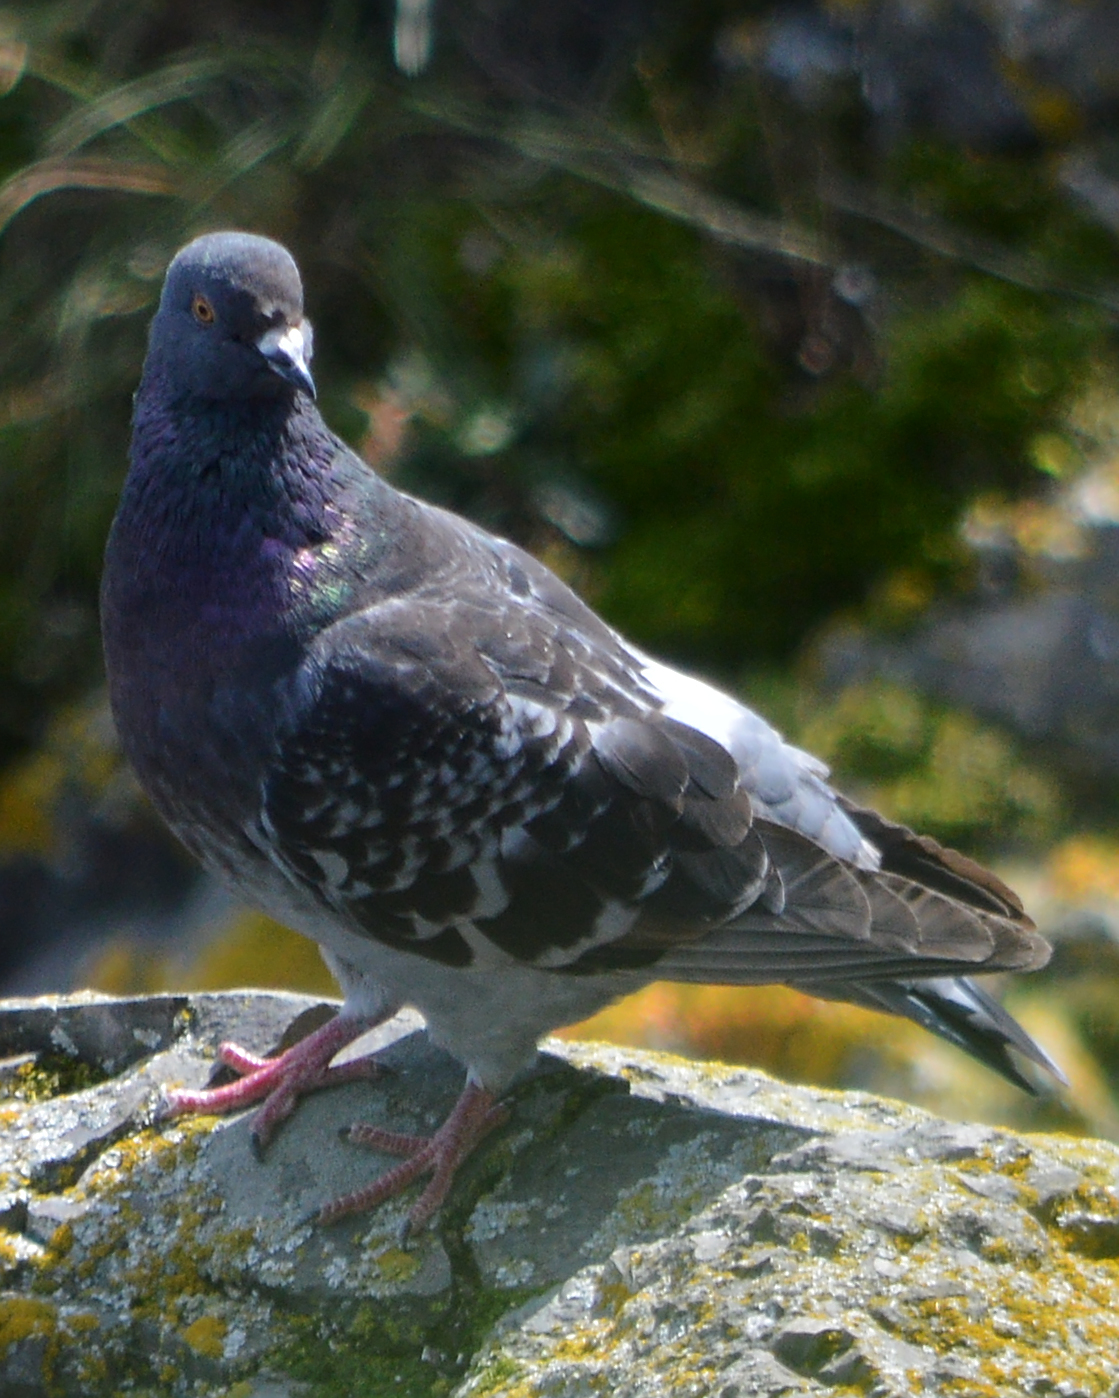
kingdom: Animalia
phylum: Chordata
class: Aves
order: Columbiformes
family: Columbidae
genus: Columba
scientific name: Columba livia
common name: Rock pigeon
